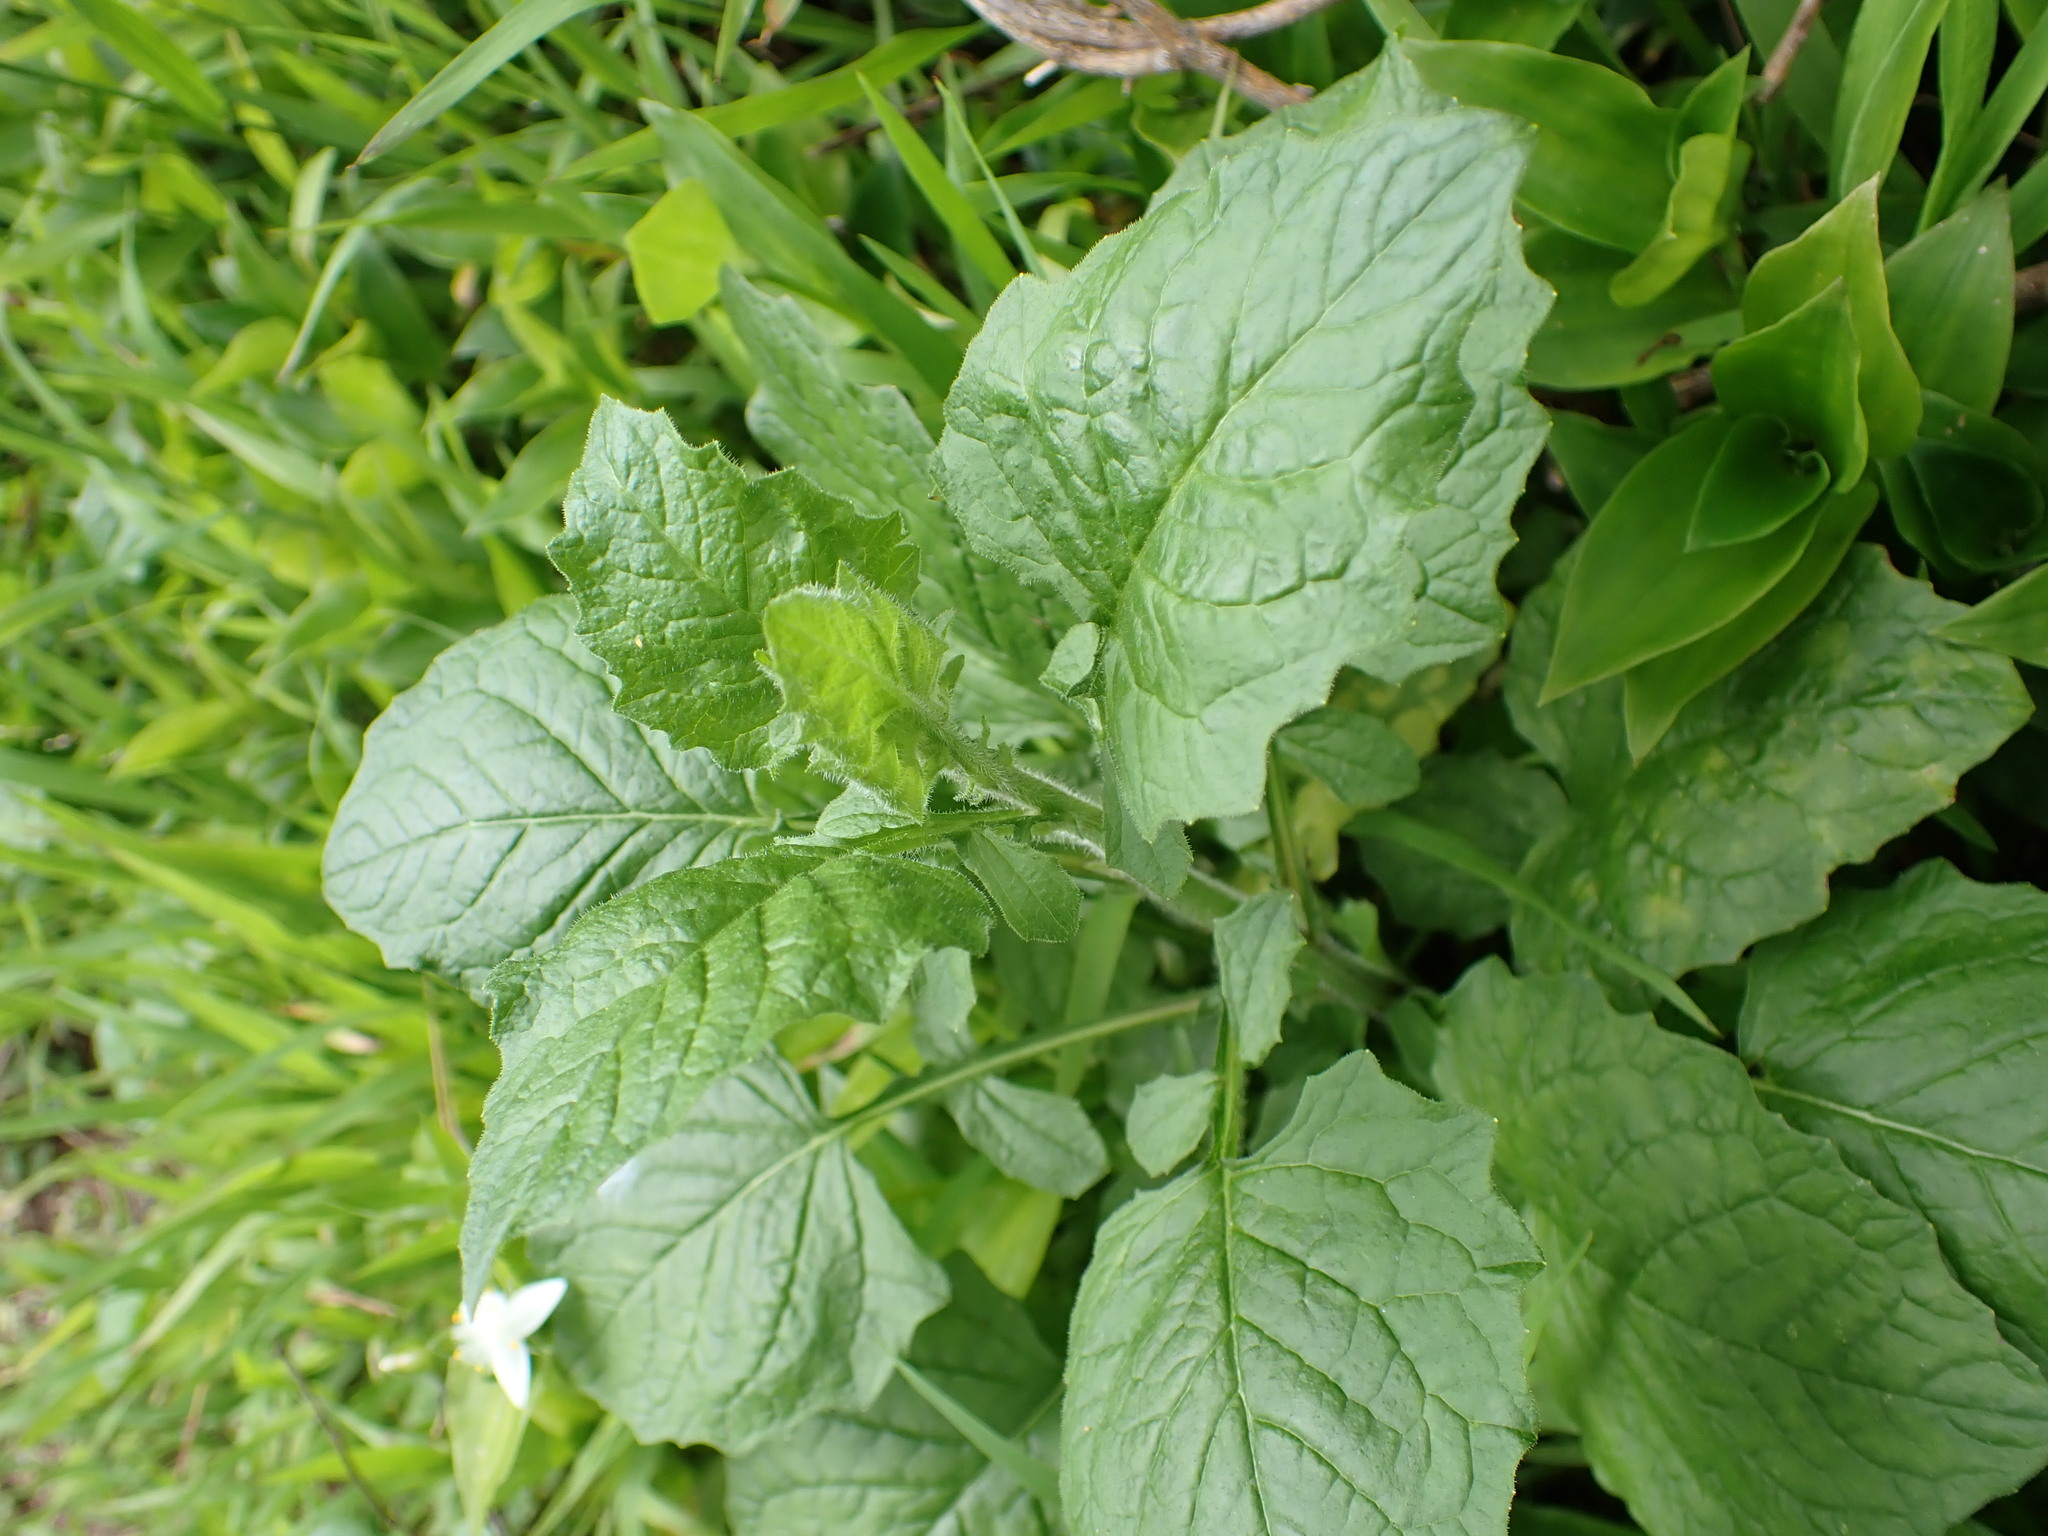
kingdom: Plantae
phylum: Tracheophyta
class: Magnoliopsida
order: Asterales
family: Asteraceae
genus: Lapsana
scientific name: Lapsana communis
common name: Nipplewort
